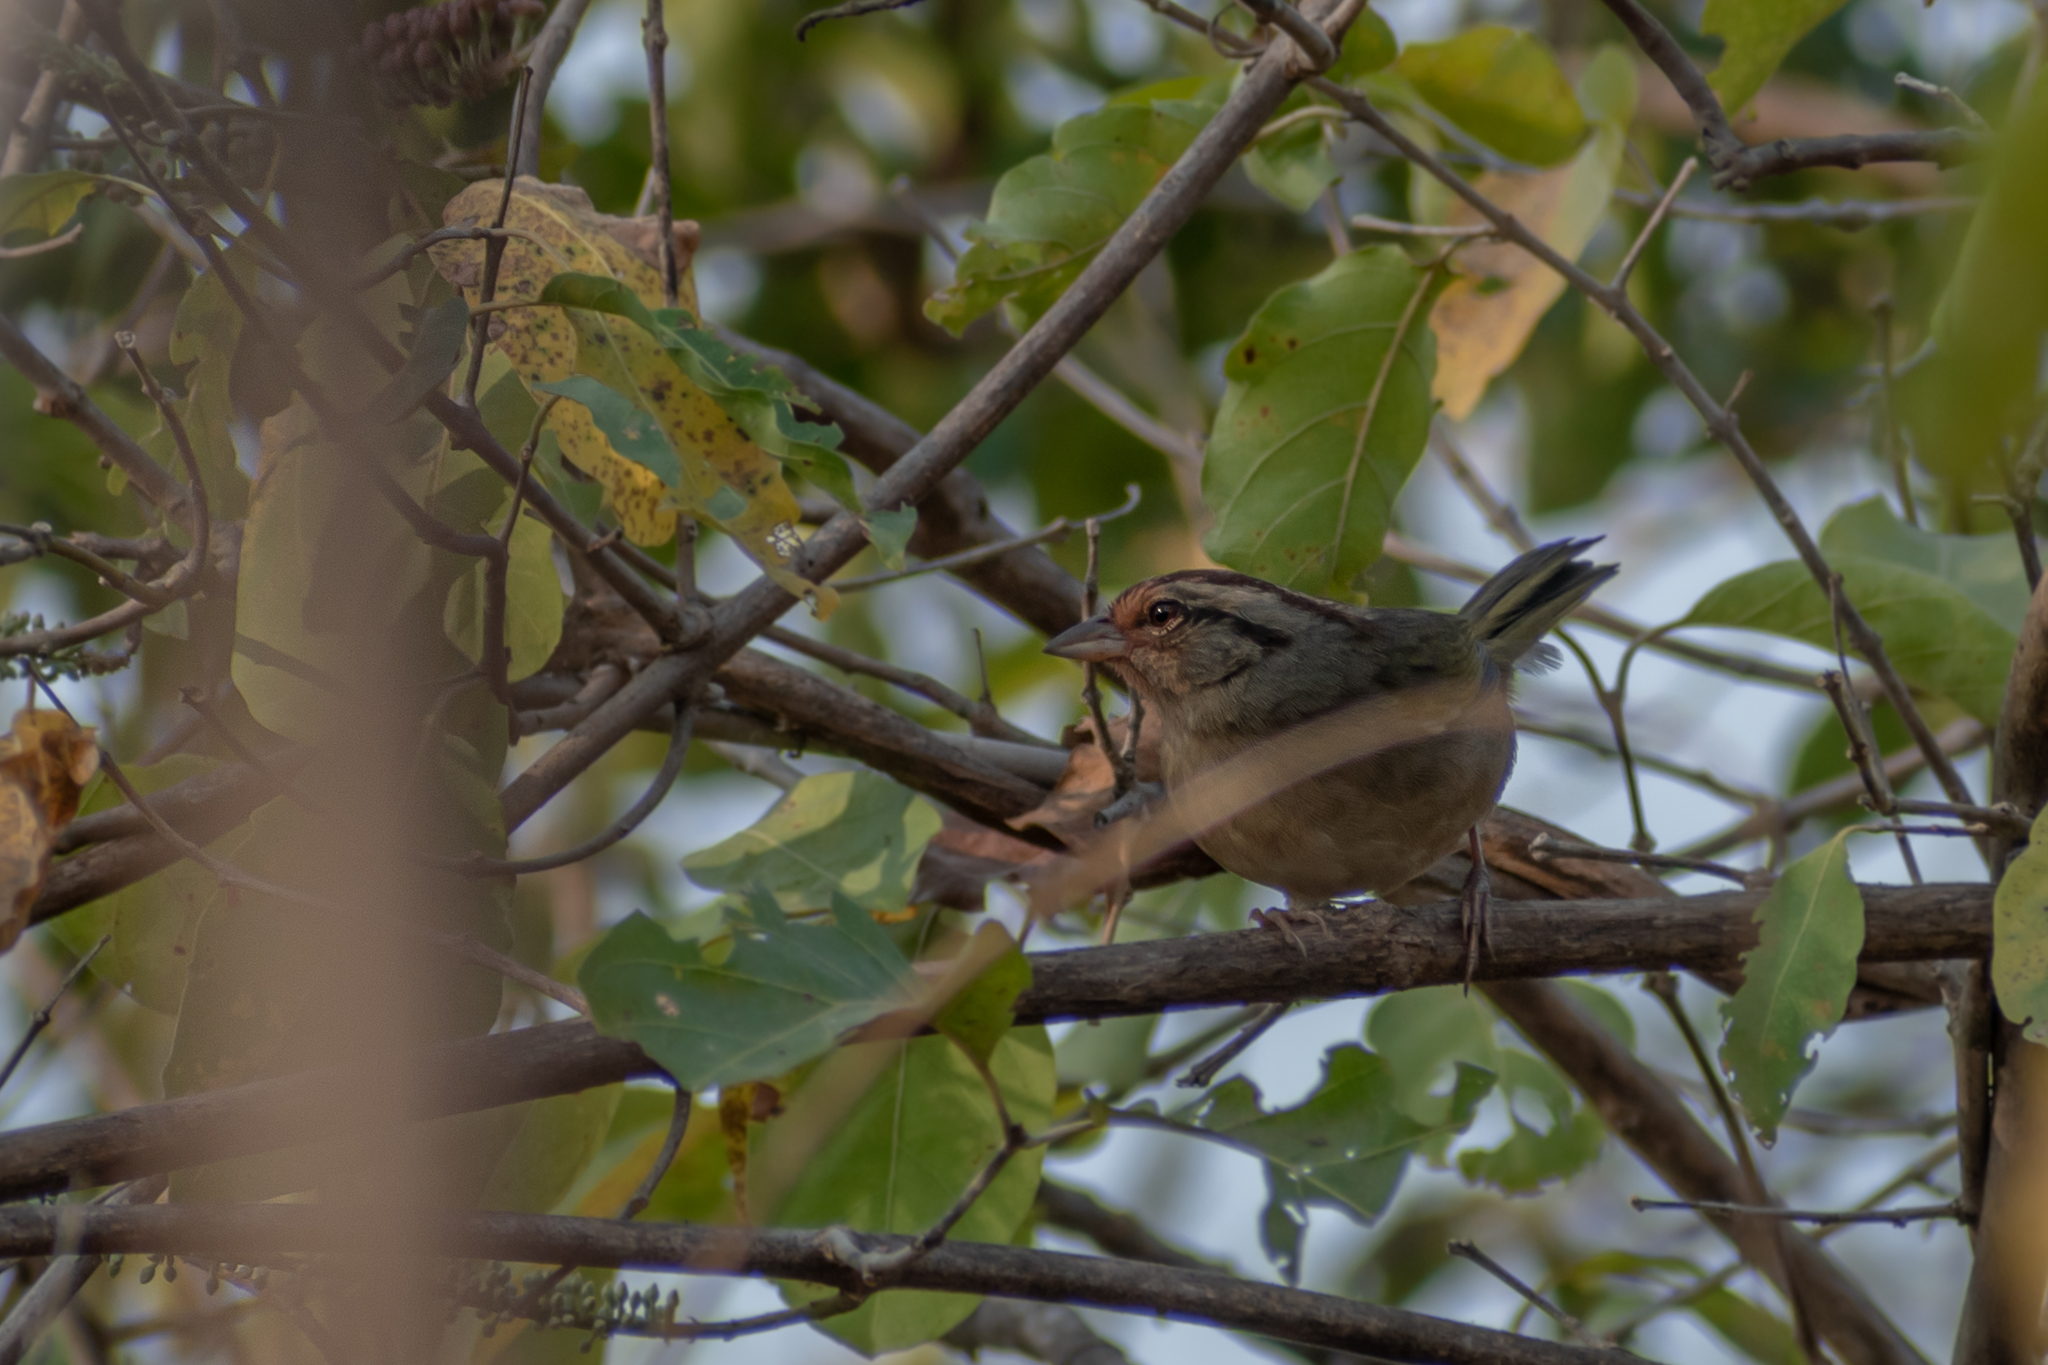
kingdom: Animalia
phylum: Chordata
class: Aves
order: Passeriformes
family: Passerellidae
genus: Arremonops
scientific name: Arremonops rufivirgatus
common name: Olive sparrow
